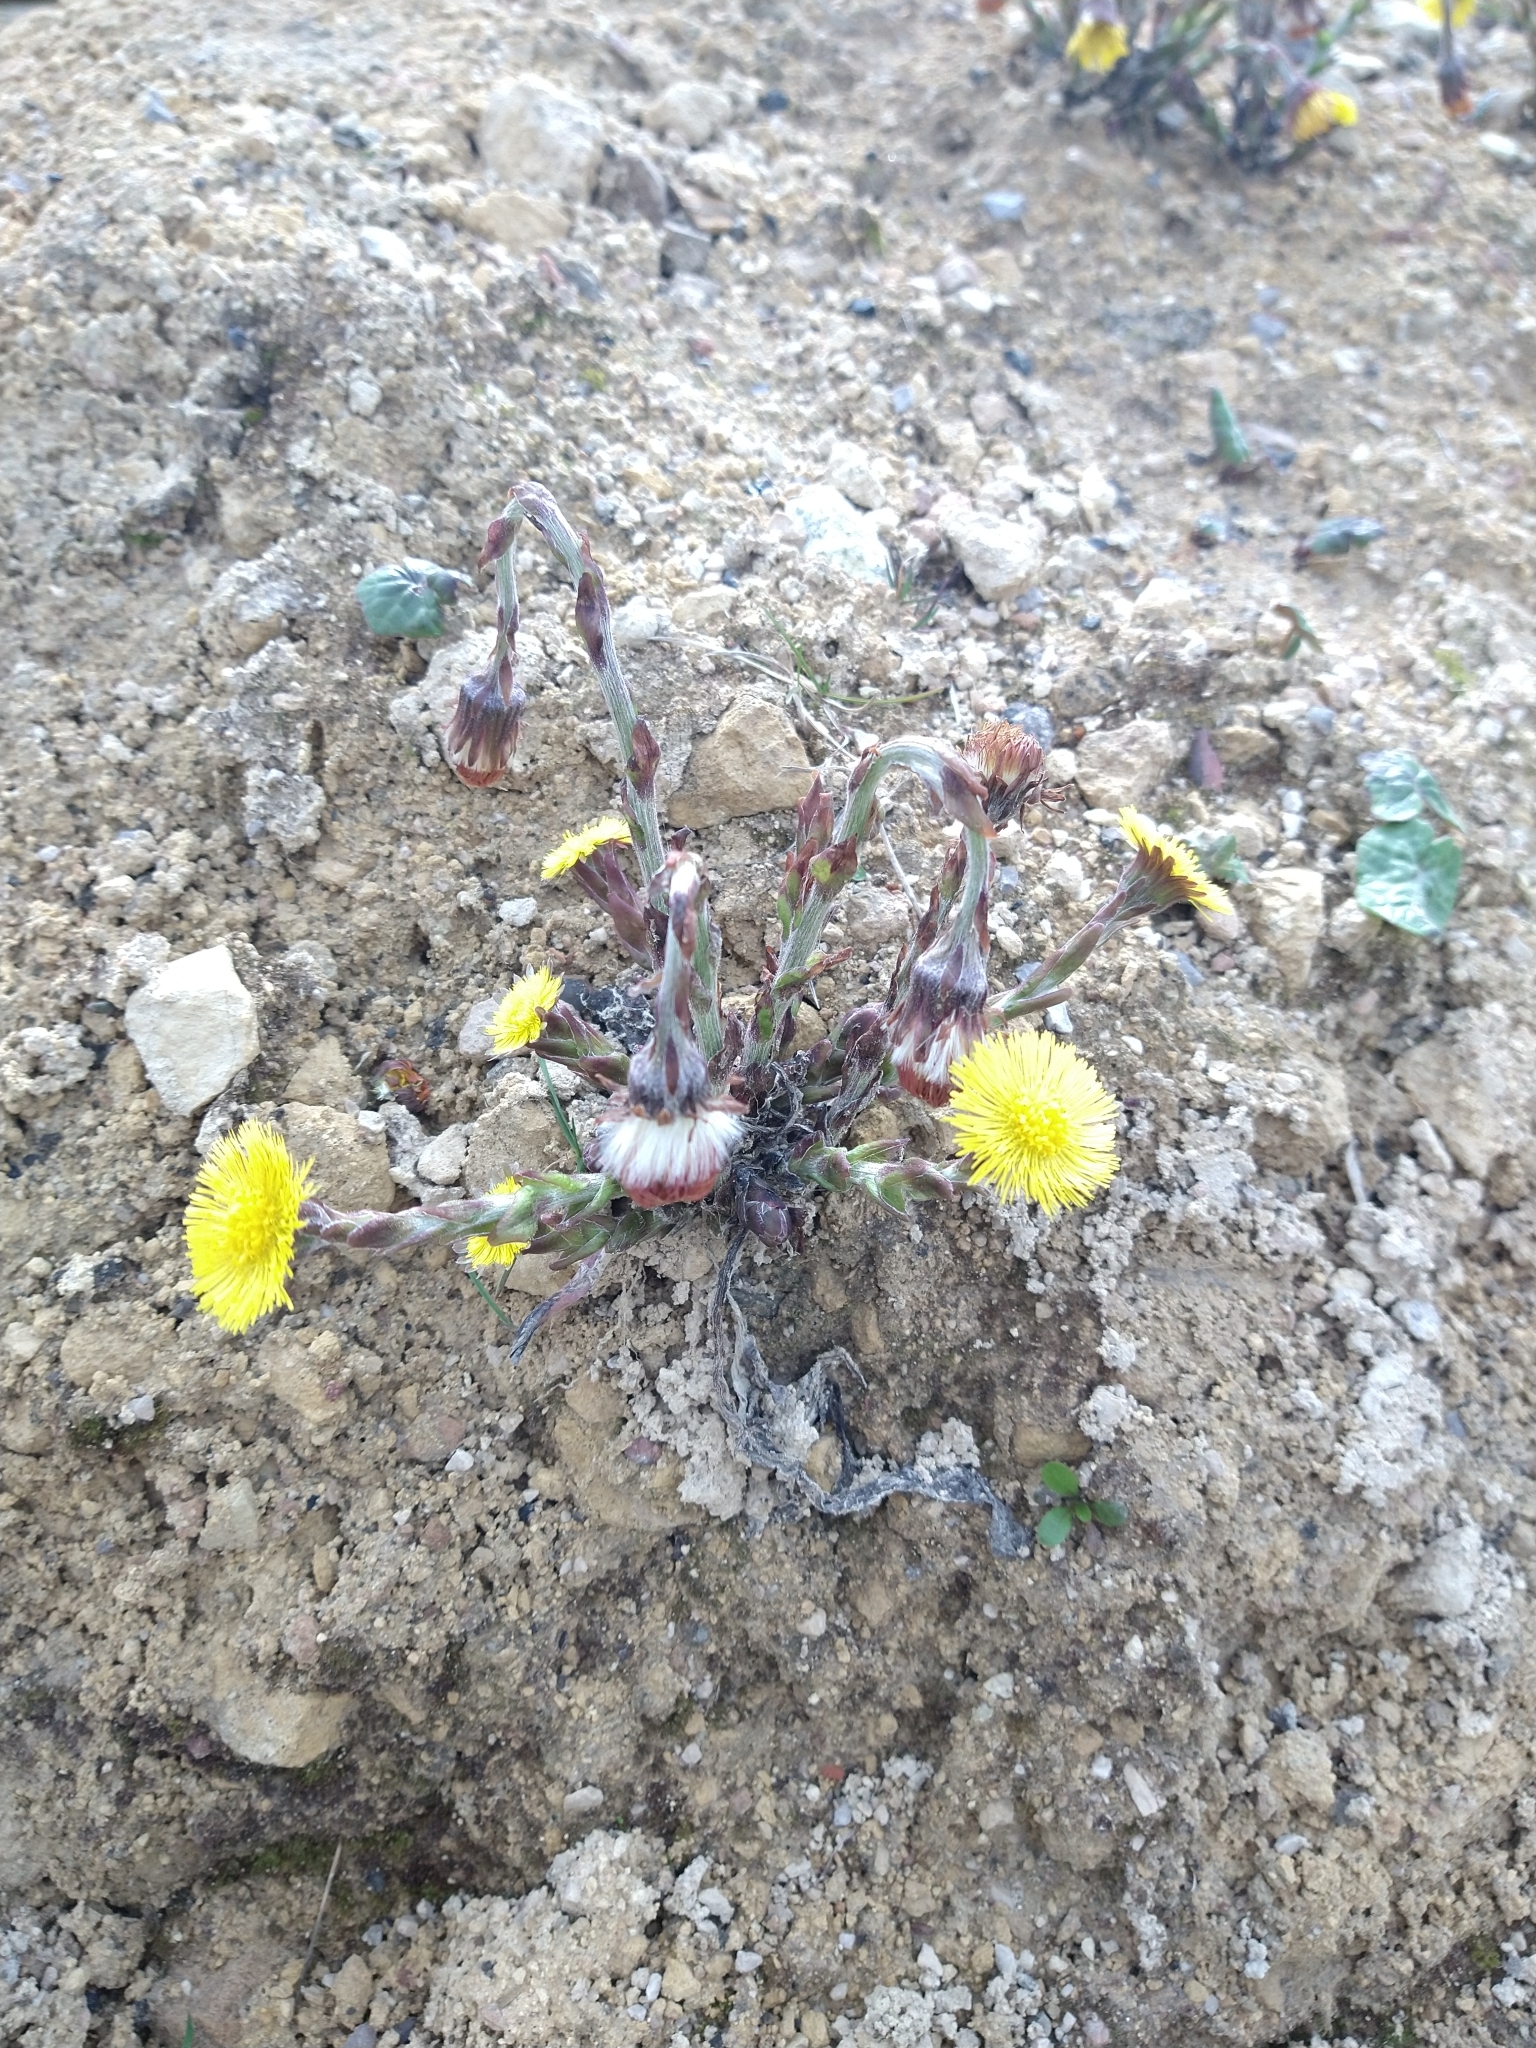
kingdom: Plantae
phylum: Tracheophyta
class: Magnoliopsida
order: Asterales
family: Asteraceae
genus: Tussilago
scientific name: Tussilago farfara
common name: Coltsfoot
